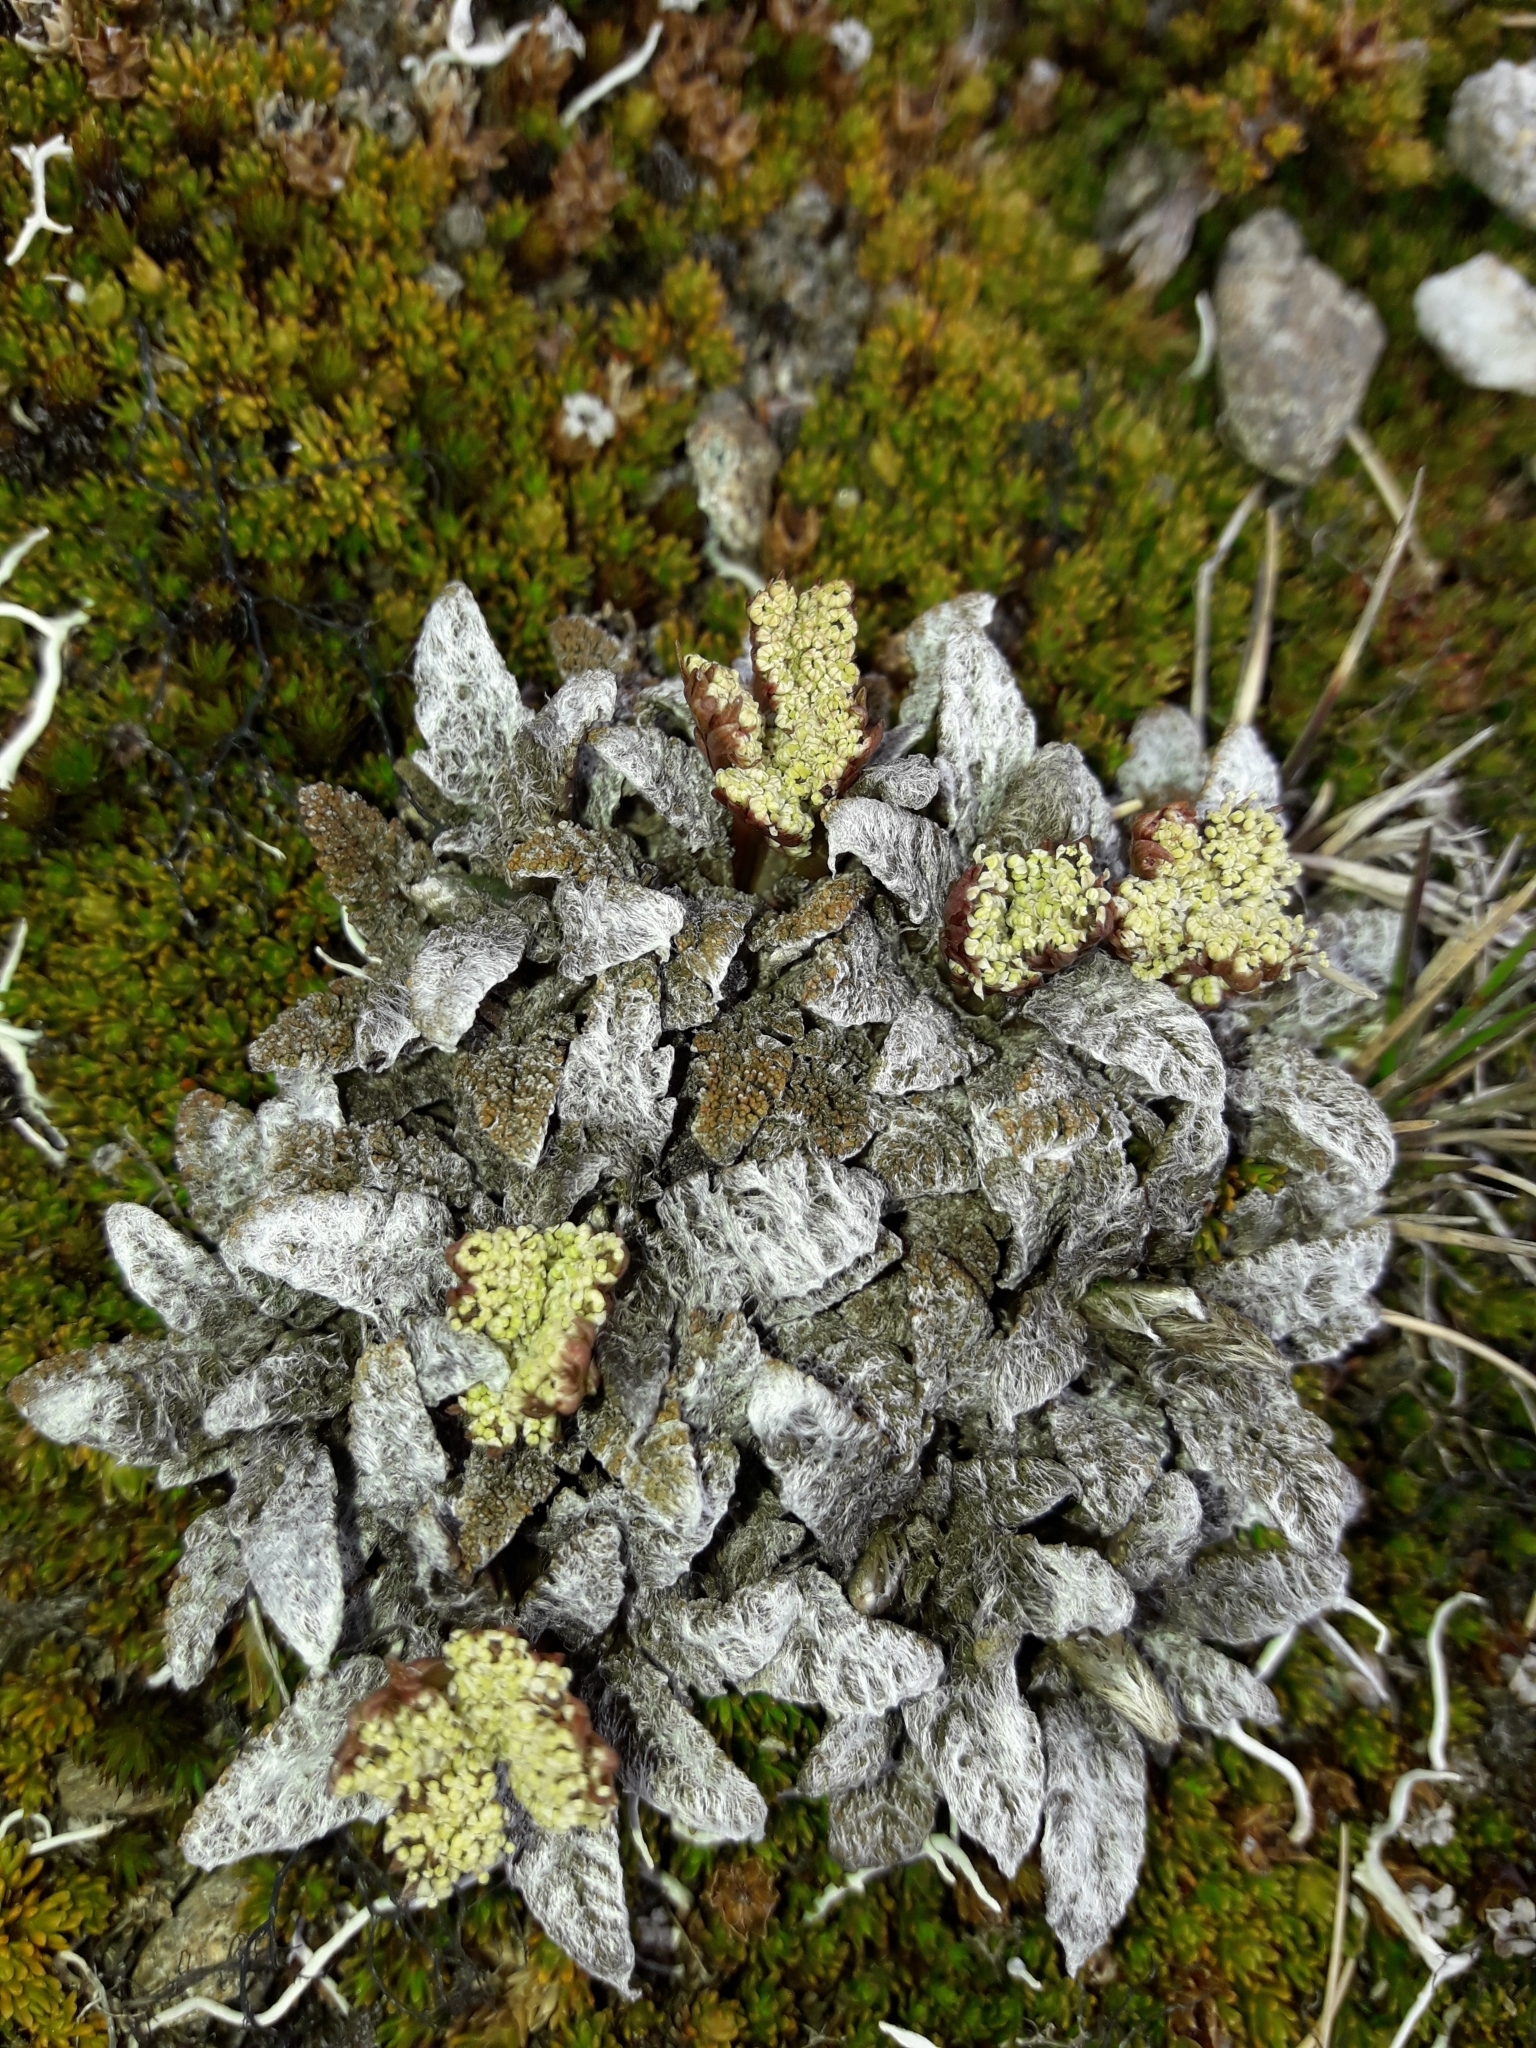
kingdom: Plantae
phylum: Tracheophyta
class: Magnoliopsida
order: Apiales
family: Apiaceae
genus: Anisotome
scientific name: Anisotome lanuginosa
